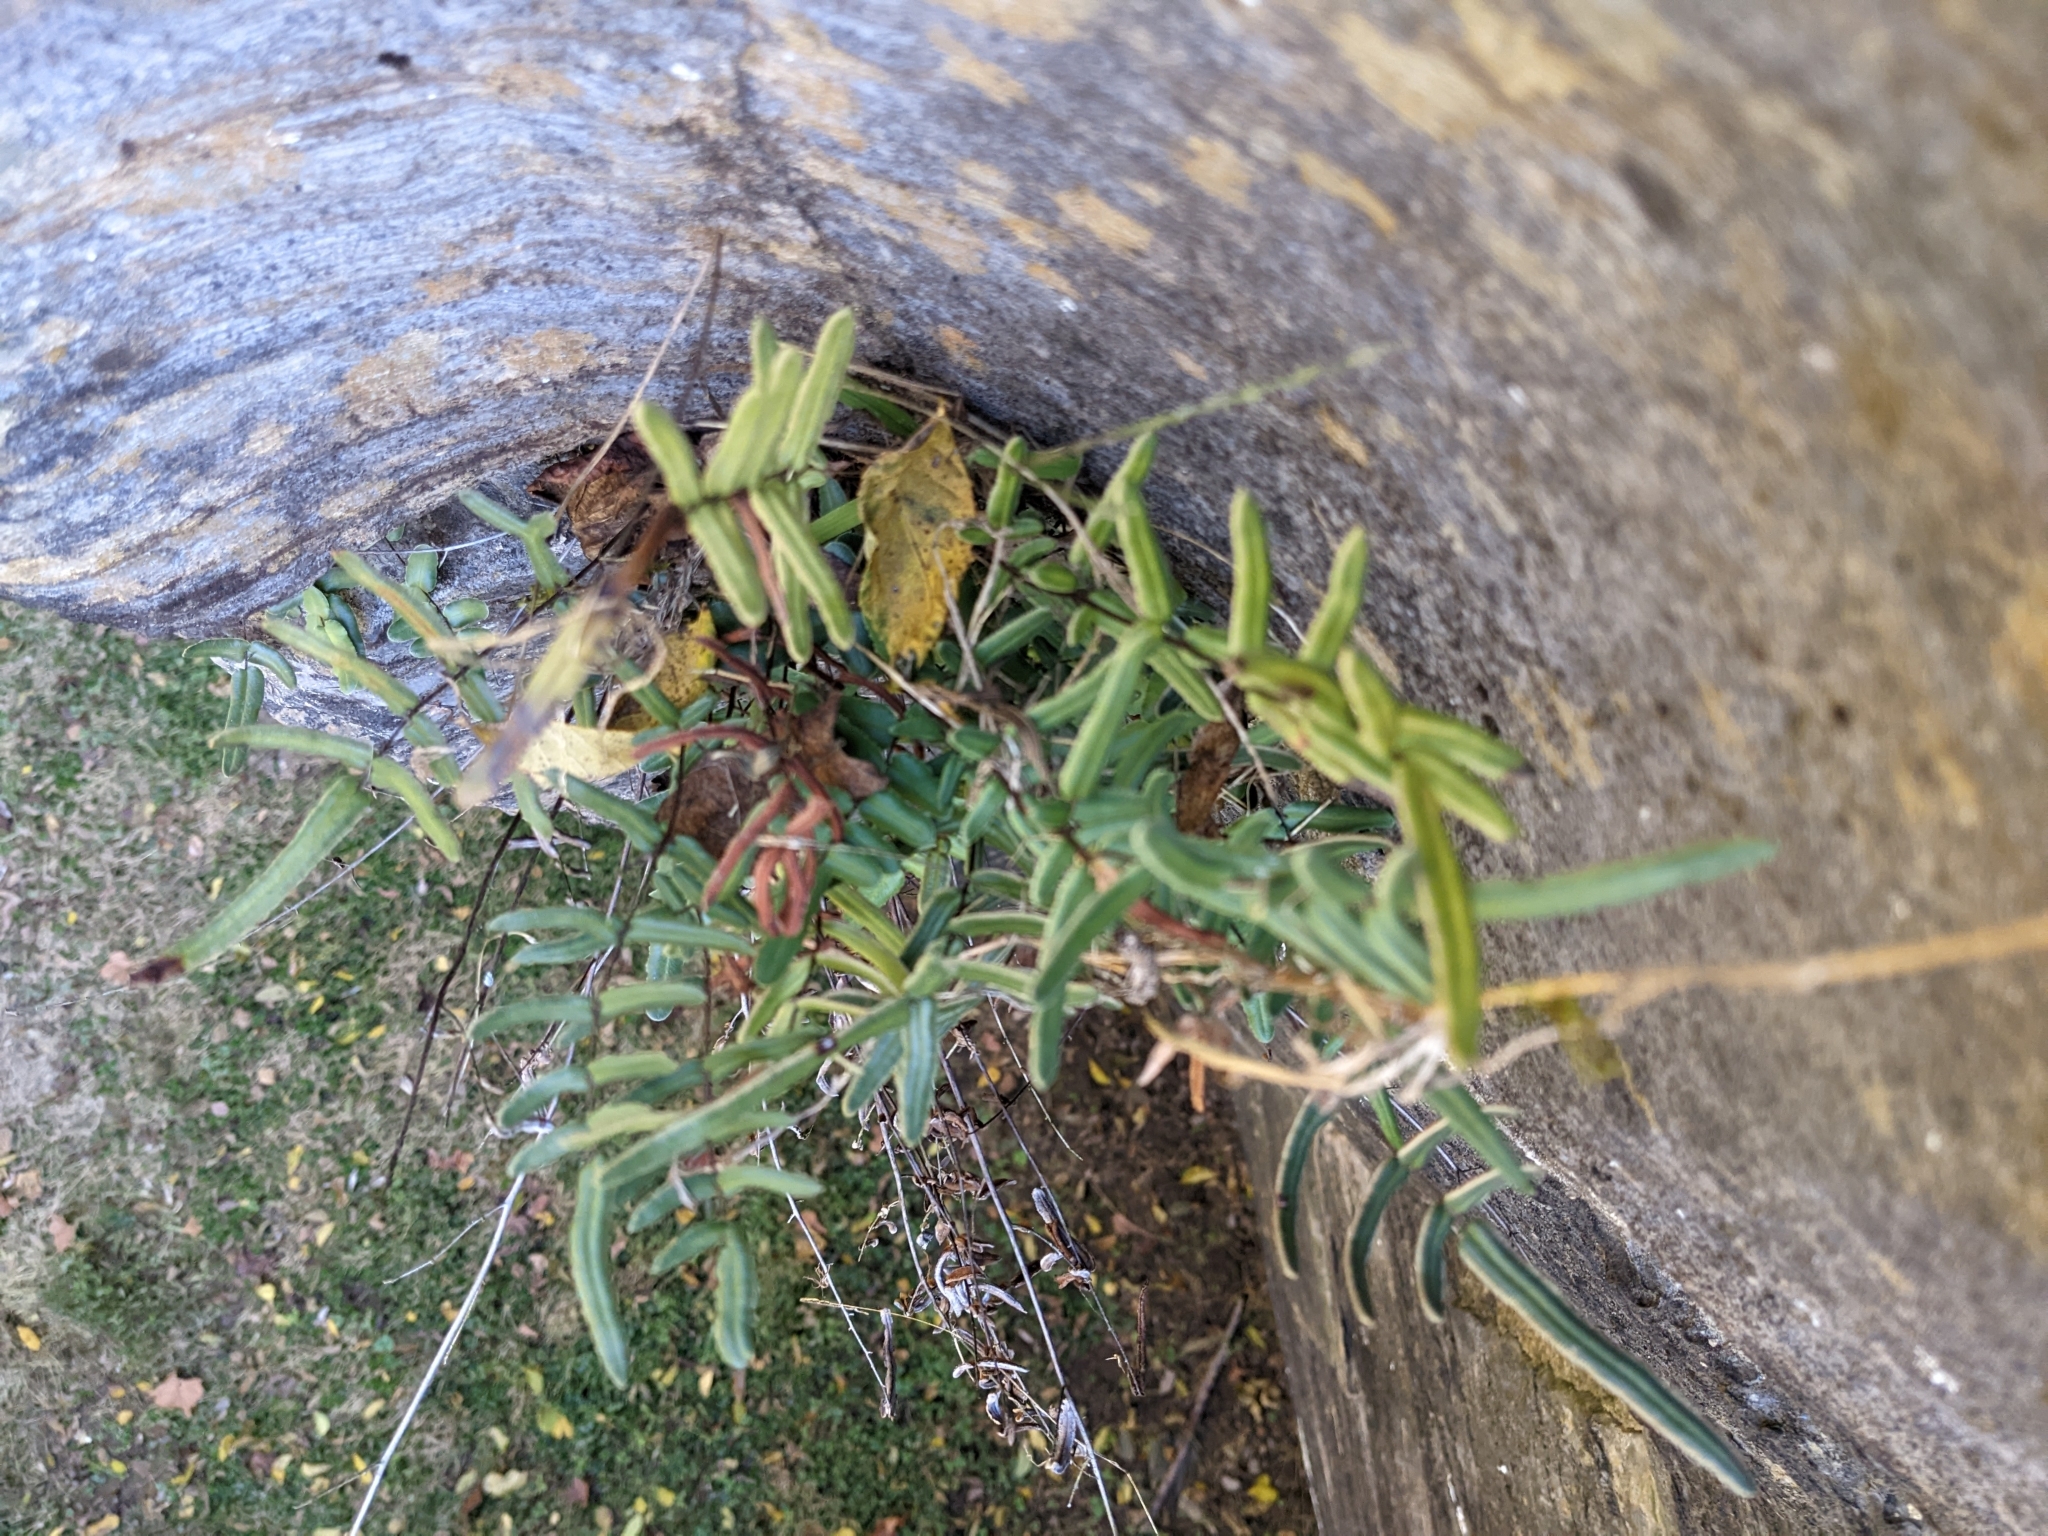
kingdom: Plantae
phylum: Tracheophyta
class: Polypodiopsida
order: Polypodiales
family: Pteridaceae
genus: Pellaea
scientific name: Pellaea atropurpurea
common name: Hairy cliffbrake
